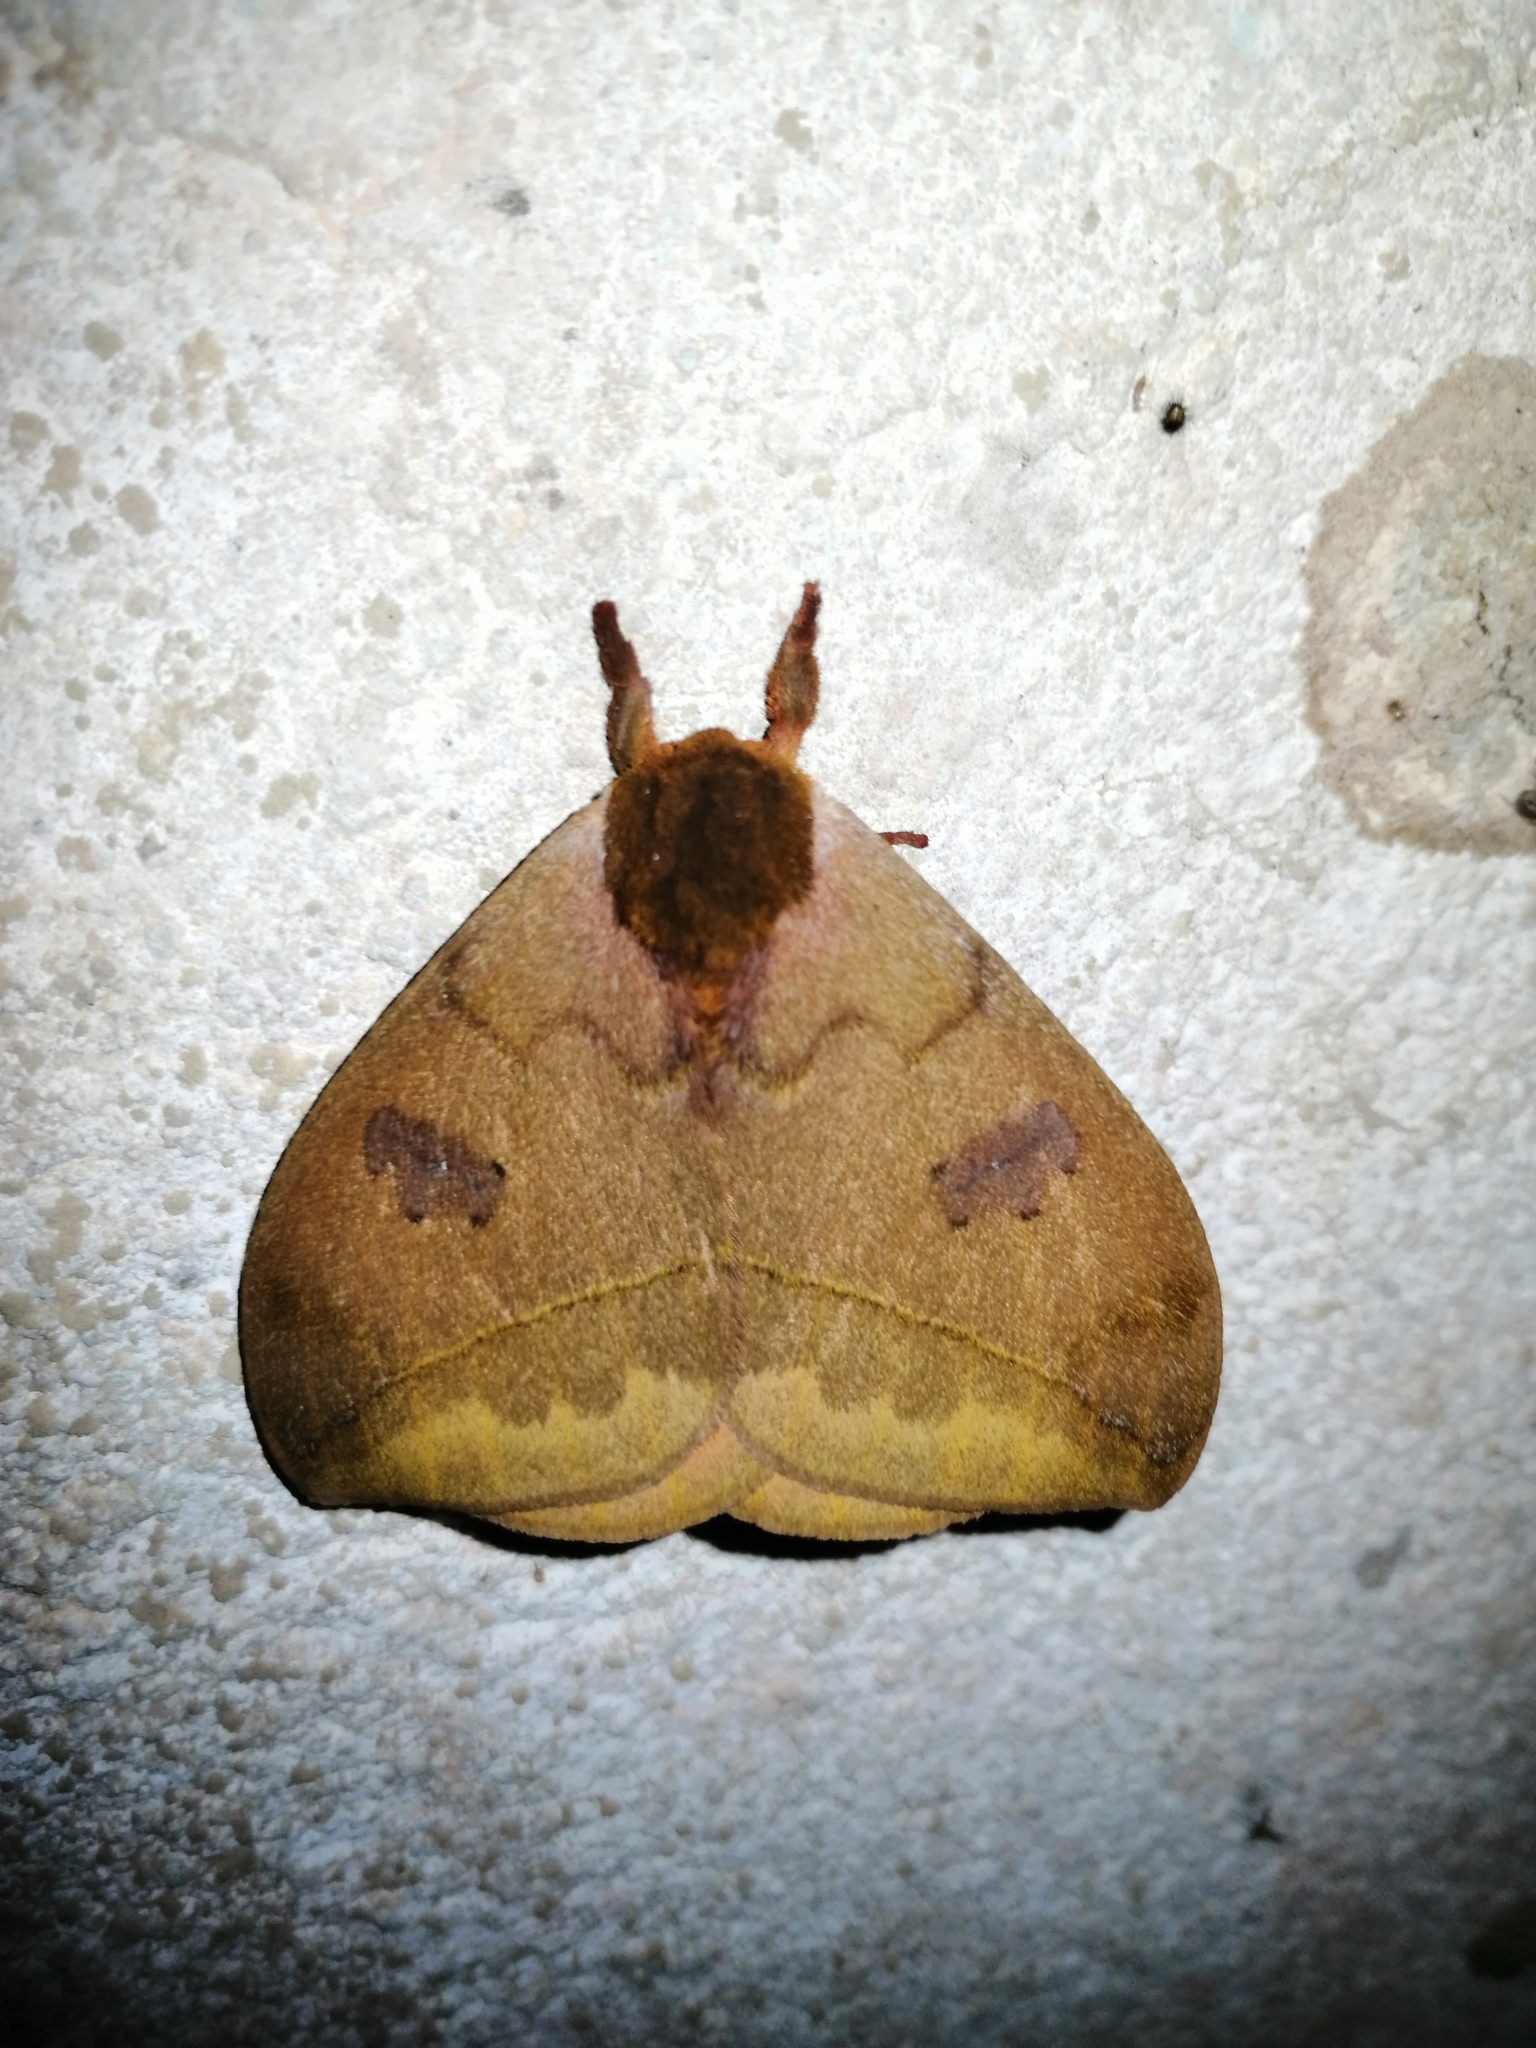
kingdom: Animalia
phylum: Arthropoda
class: Insecta
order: Lepidoptera
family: Saturniidae
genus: Automeris
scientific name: Automeris io
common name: Io moth
